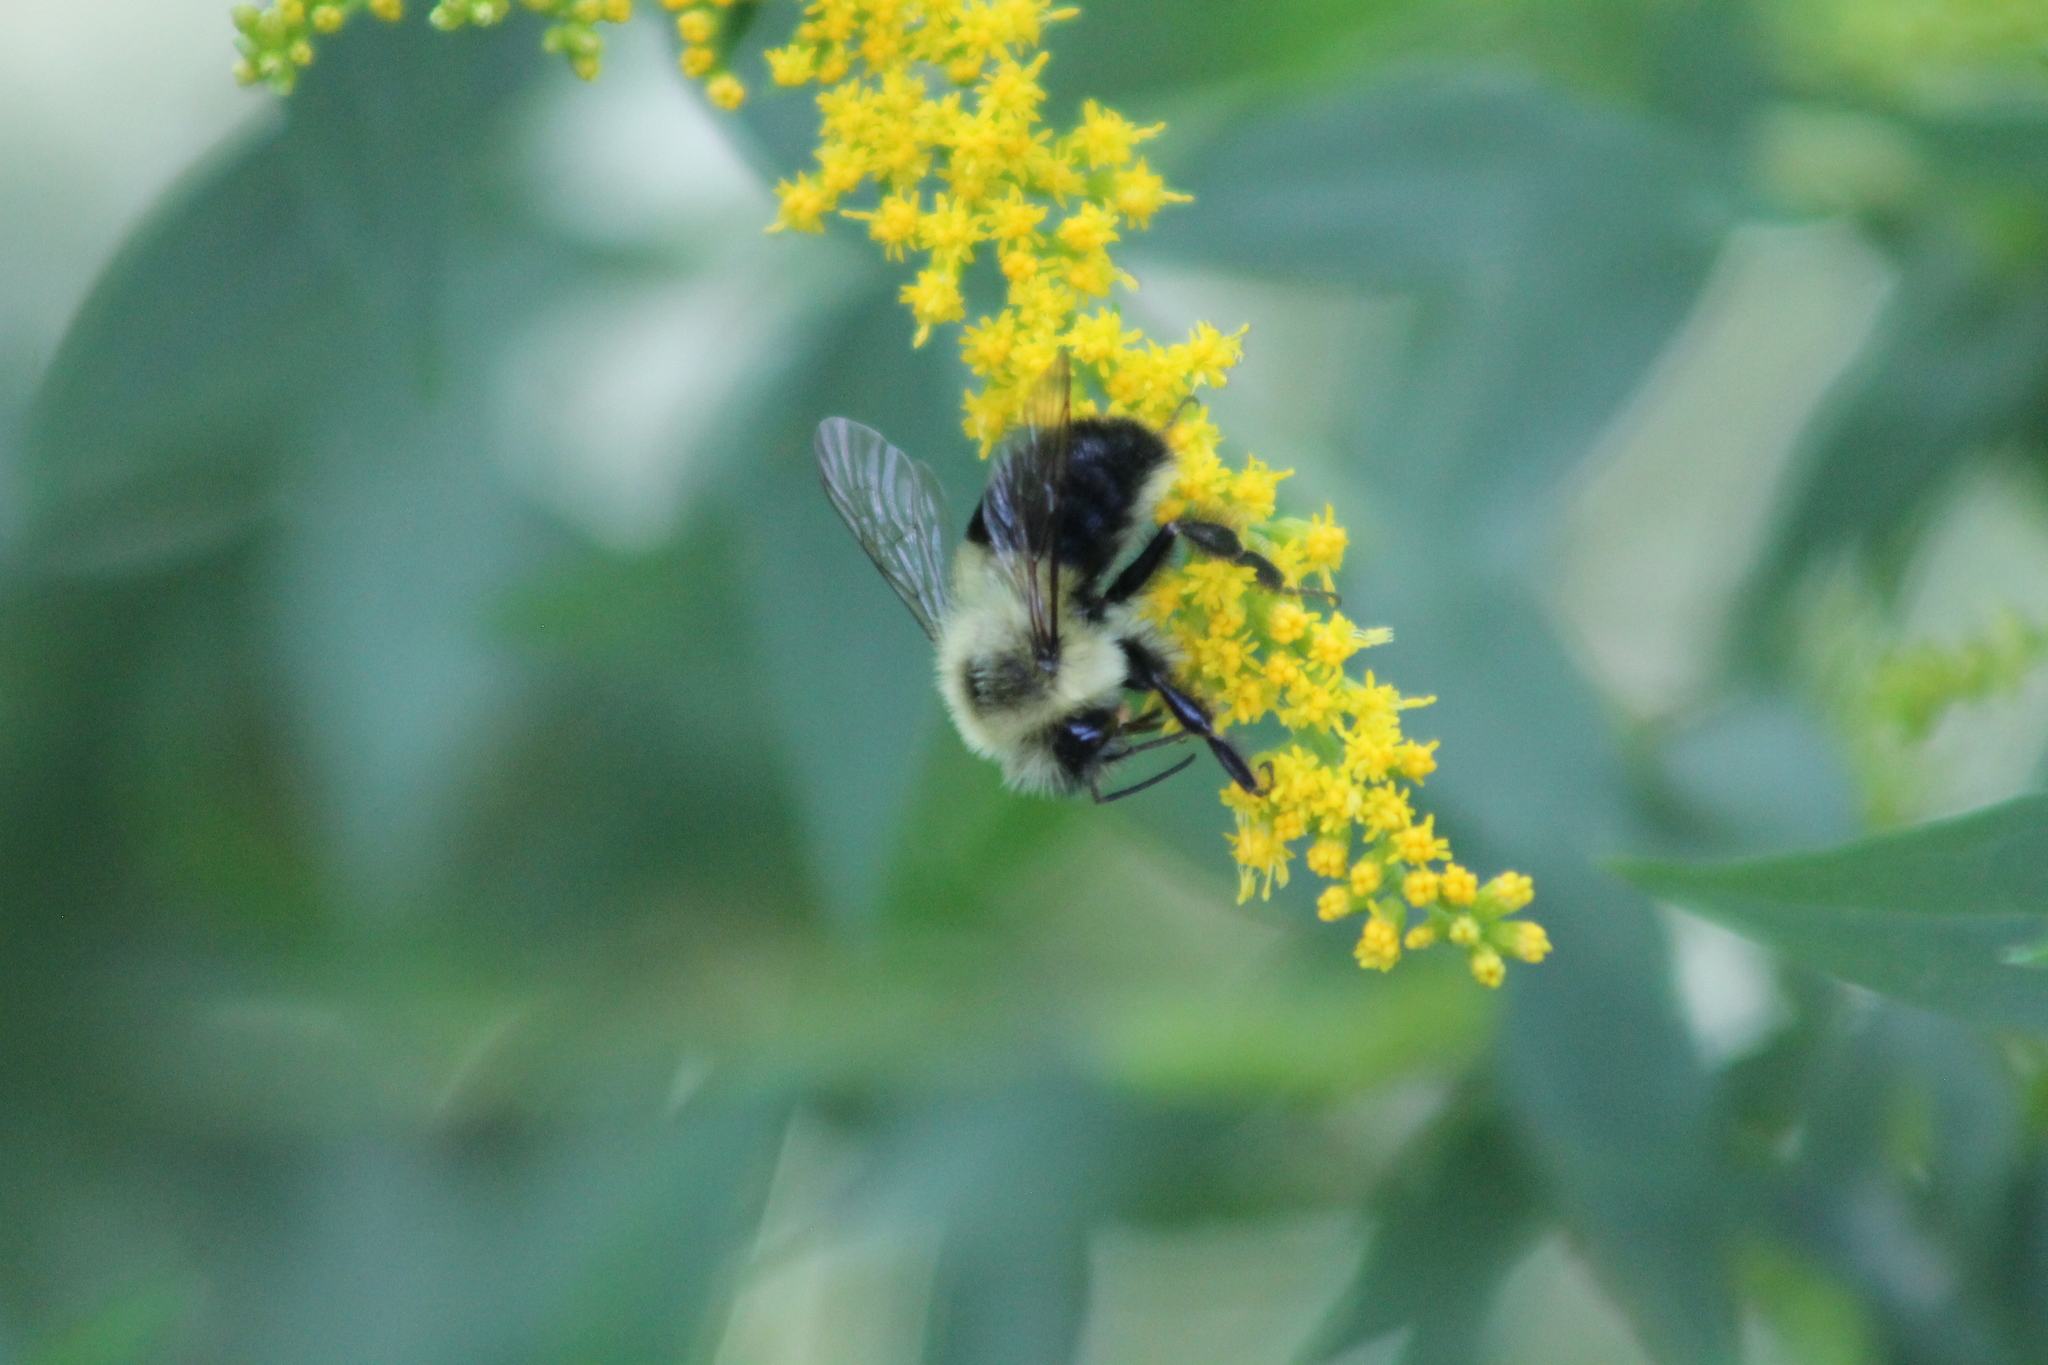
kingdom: Animalia
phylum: Arthropoda
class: Insecta
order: Hymenoptera
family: Apidae
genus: Bombus
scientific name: Bombus impatiens
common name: Common eastern bumble bee
